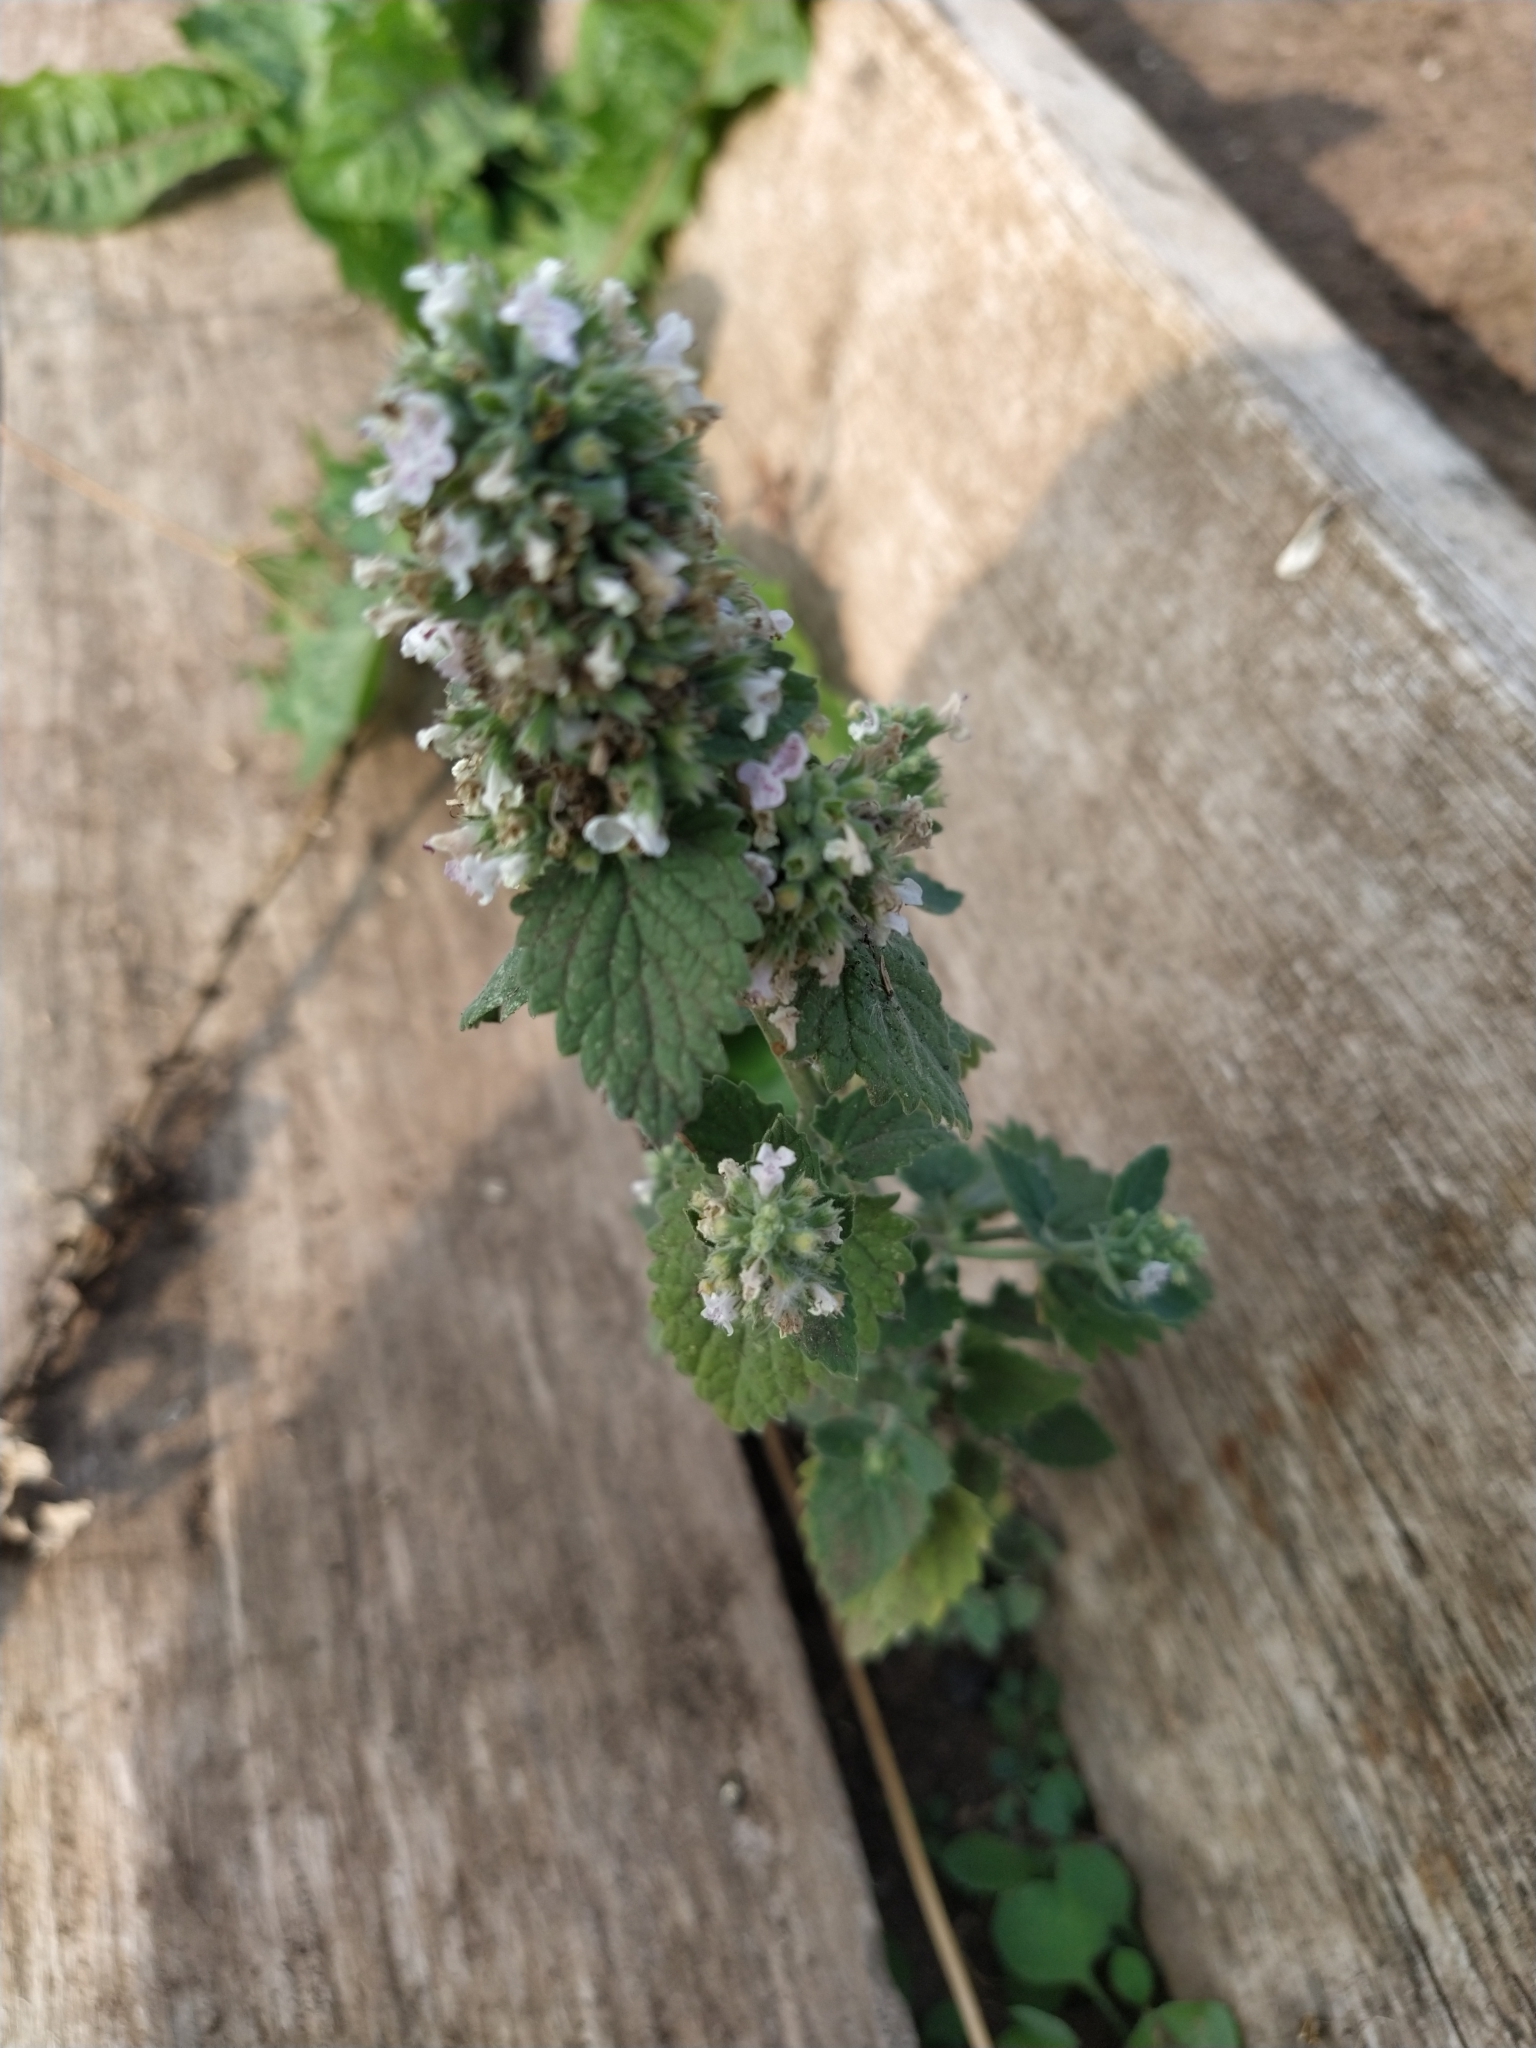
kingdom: Plantae
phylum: Tracheophyta
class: Magnoliopsida
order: Lamiales
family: Lamiaceae
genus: Nepeta
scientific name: Nepeta cataria
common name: Catnip
